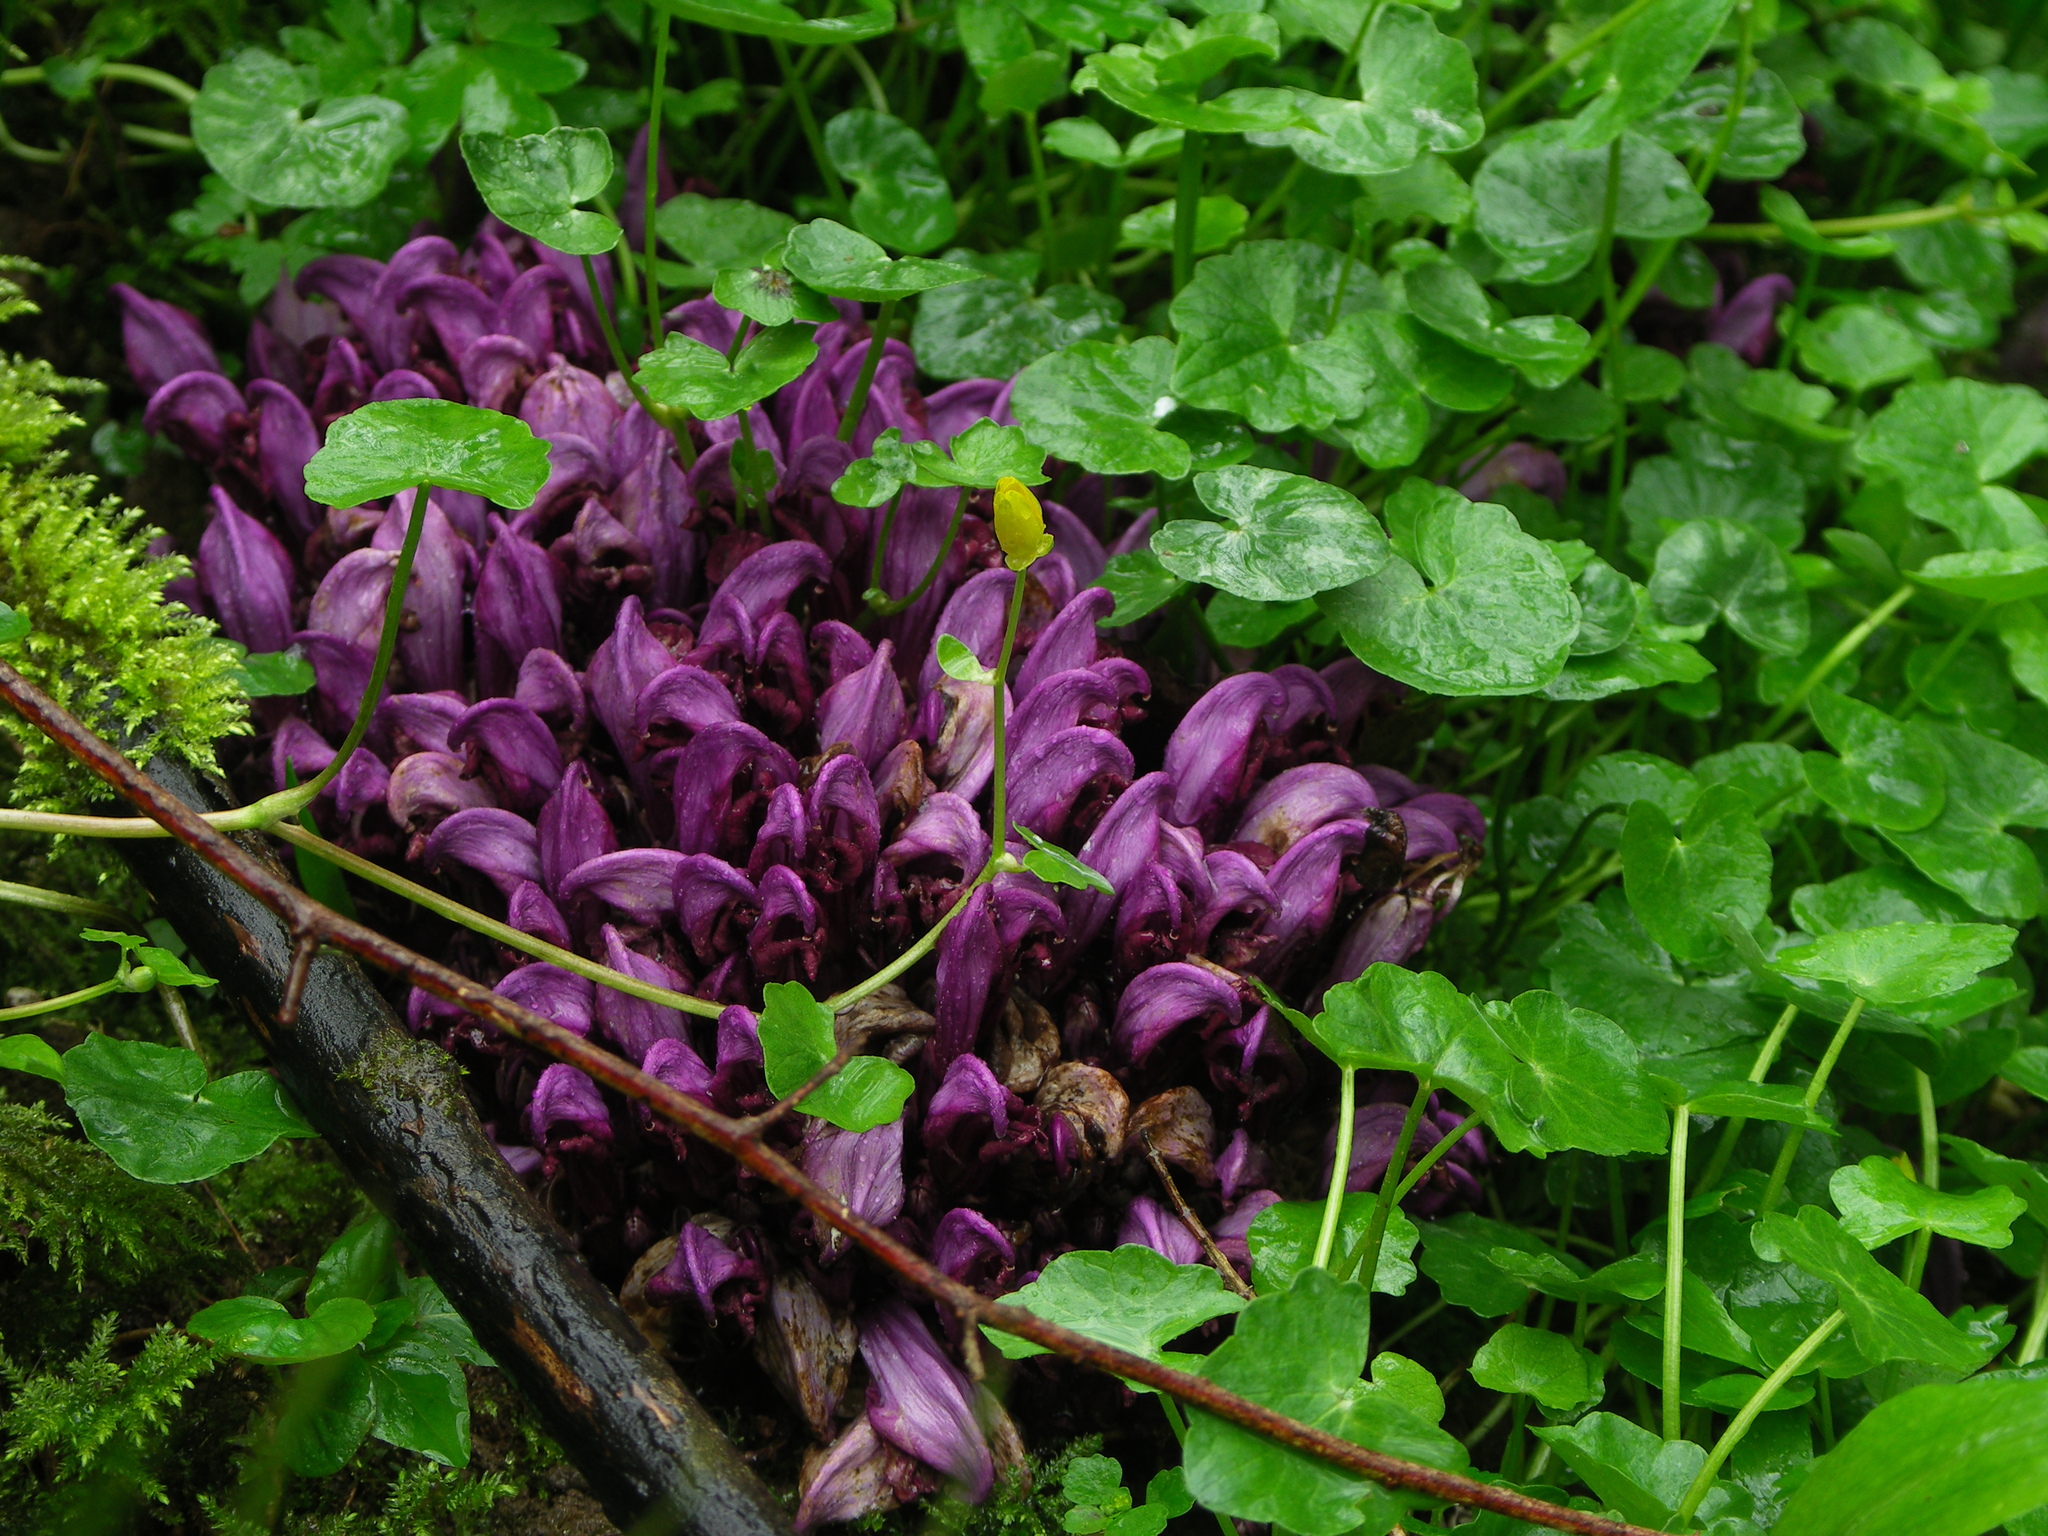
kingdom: Plantae
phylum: Tracheophyta
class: Magnoliopsida
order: Lamiales
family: Orobanchaceae
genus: Lathraea
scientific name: Lathraea clandestina
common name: Purple toothwort
